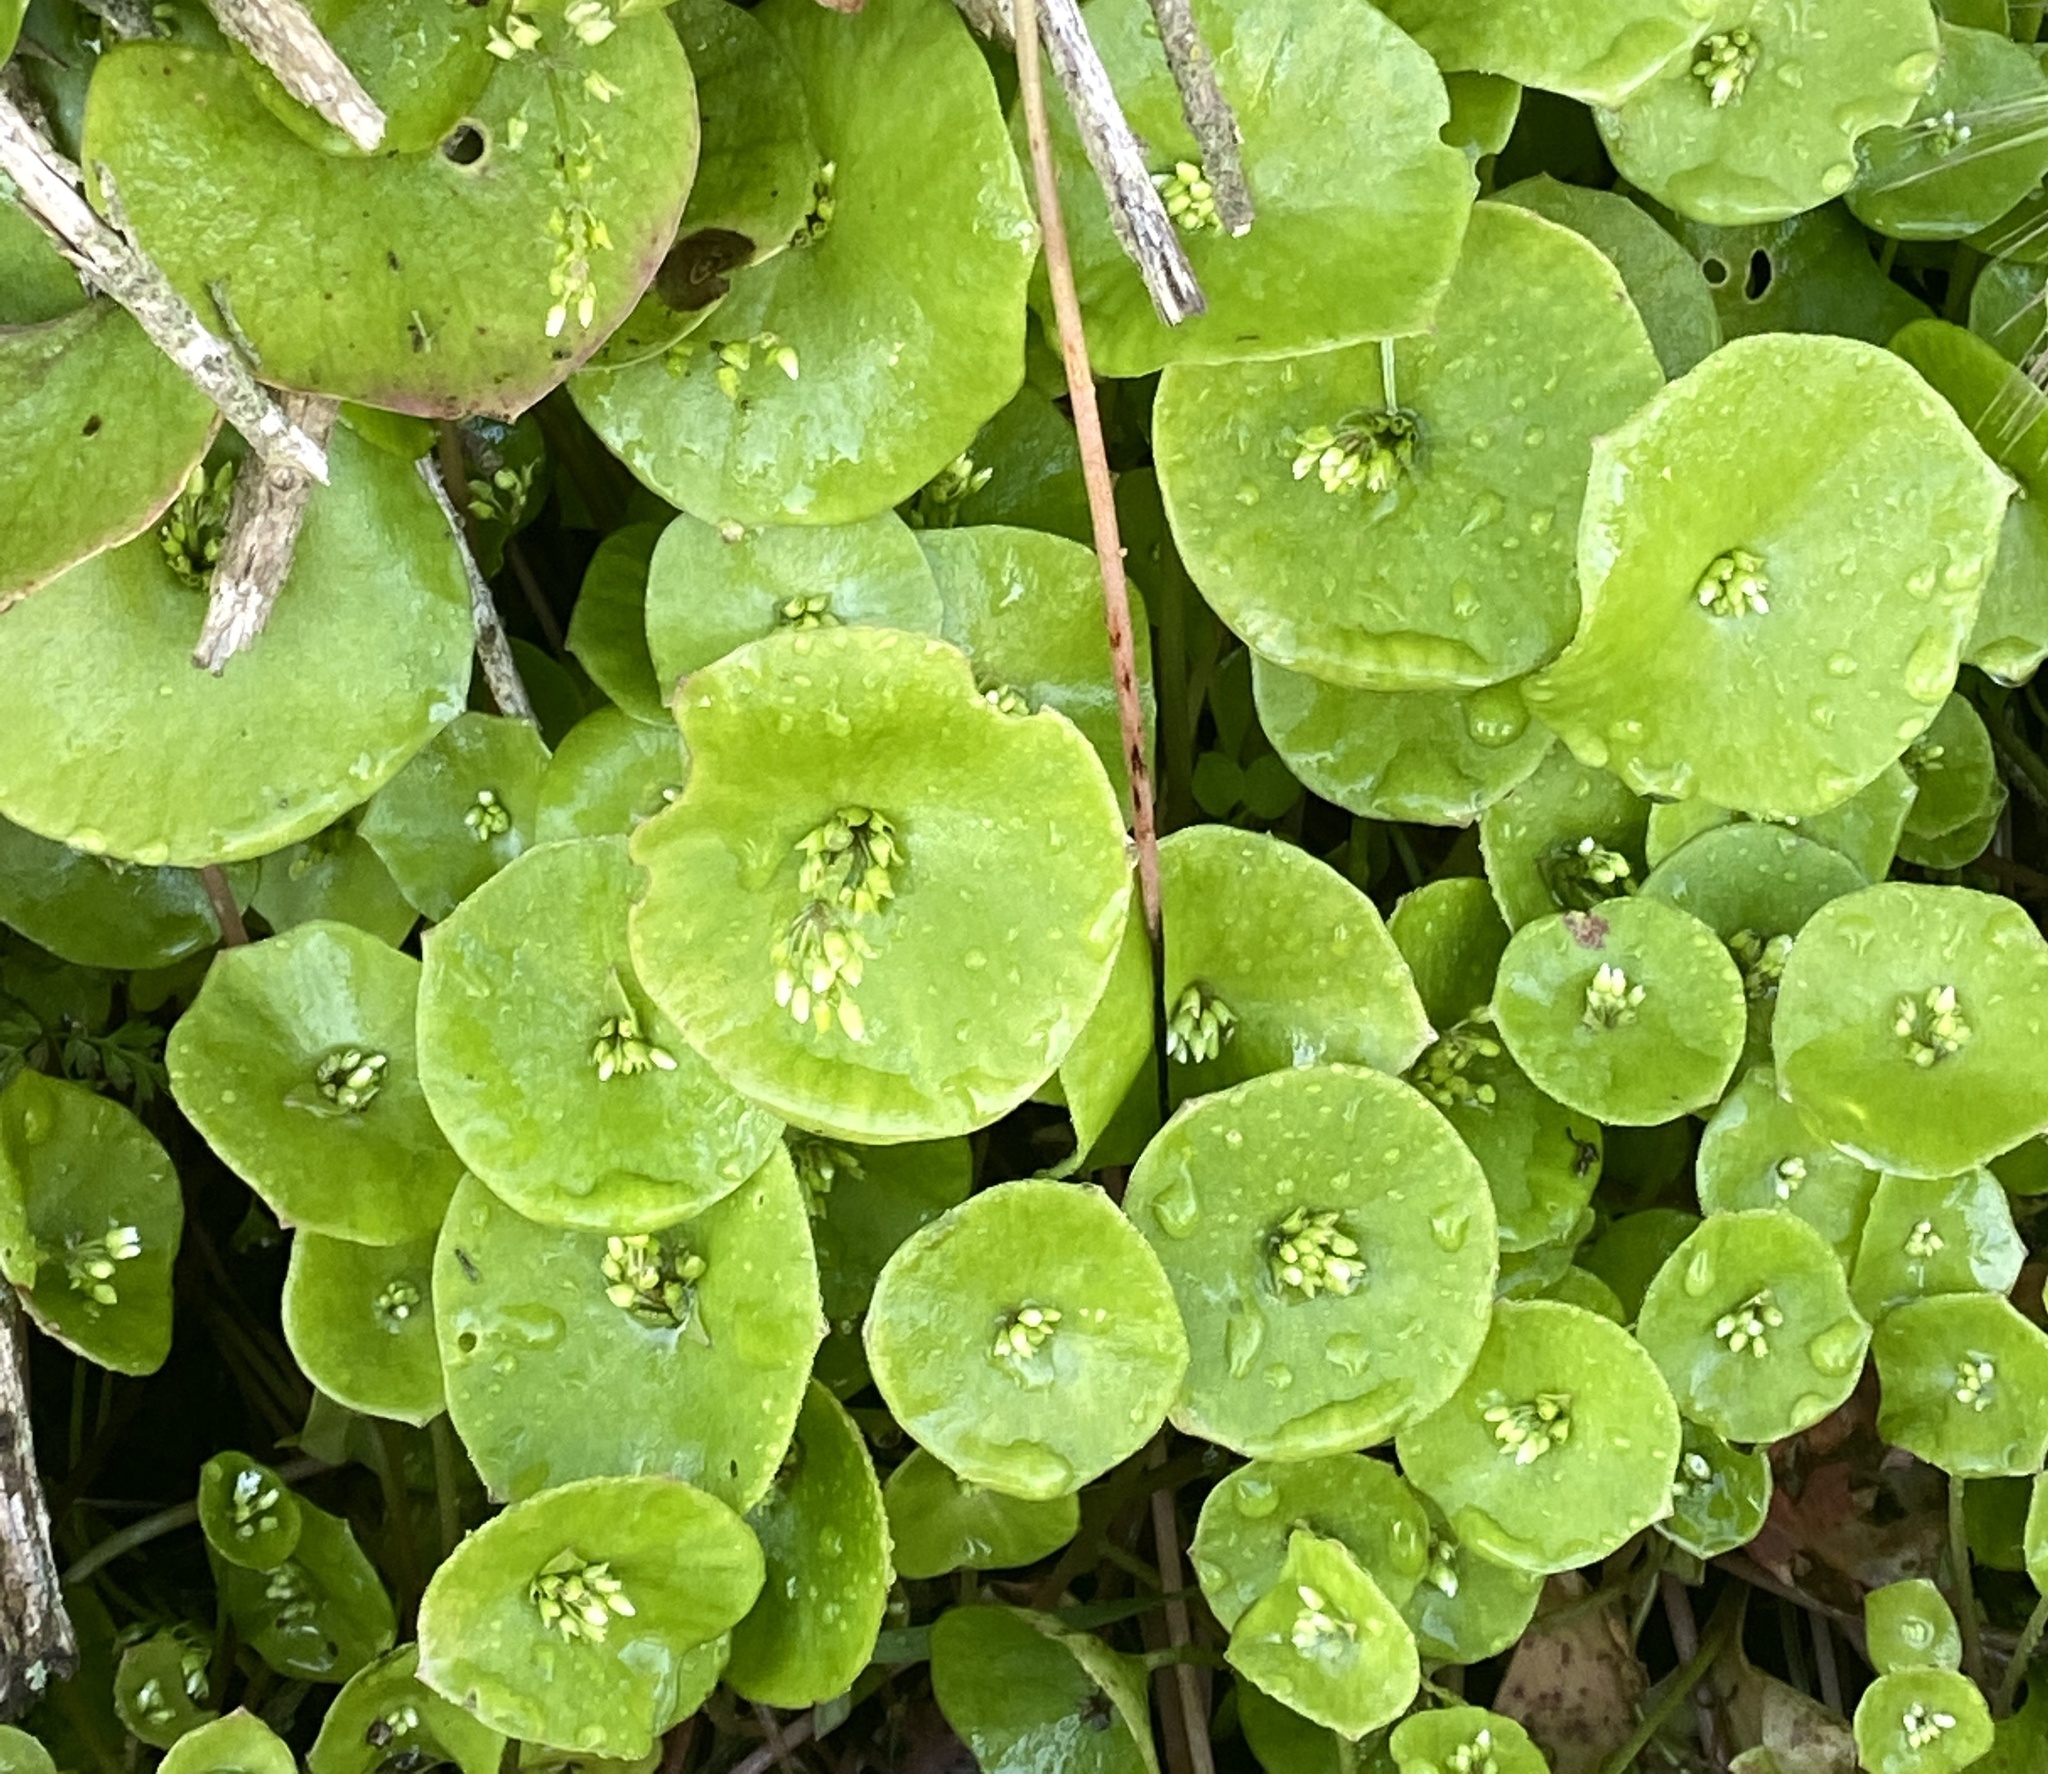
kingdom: Plantae
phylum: Tracheophyta
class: Magnoliopsida
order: Caryophyllales
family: Montiaceae
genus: Claytonia
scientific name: Claytonia perfoliata
